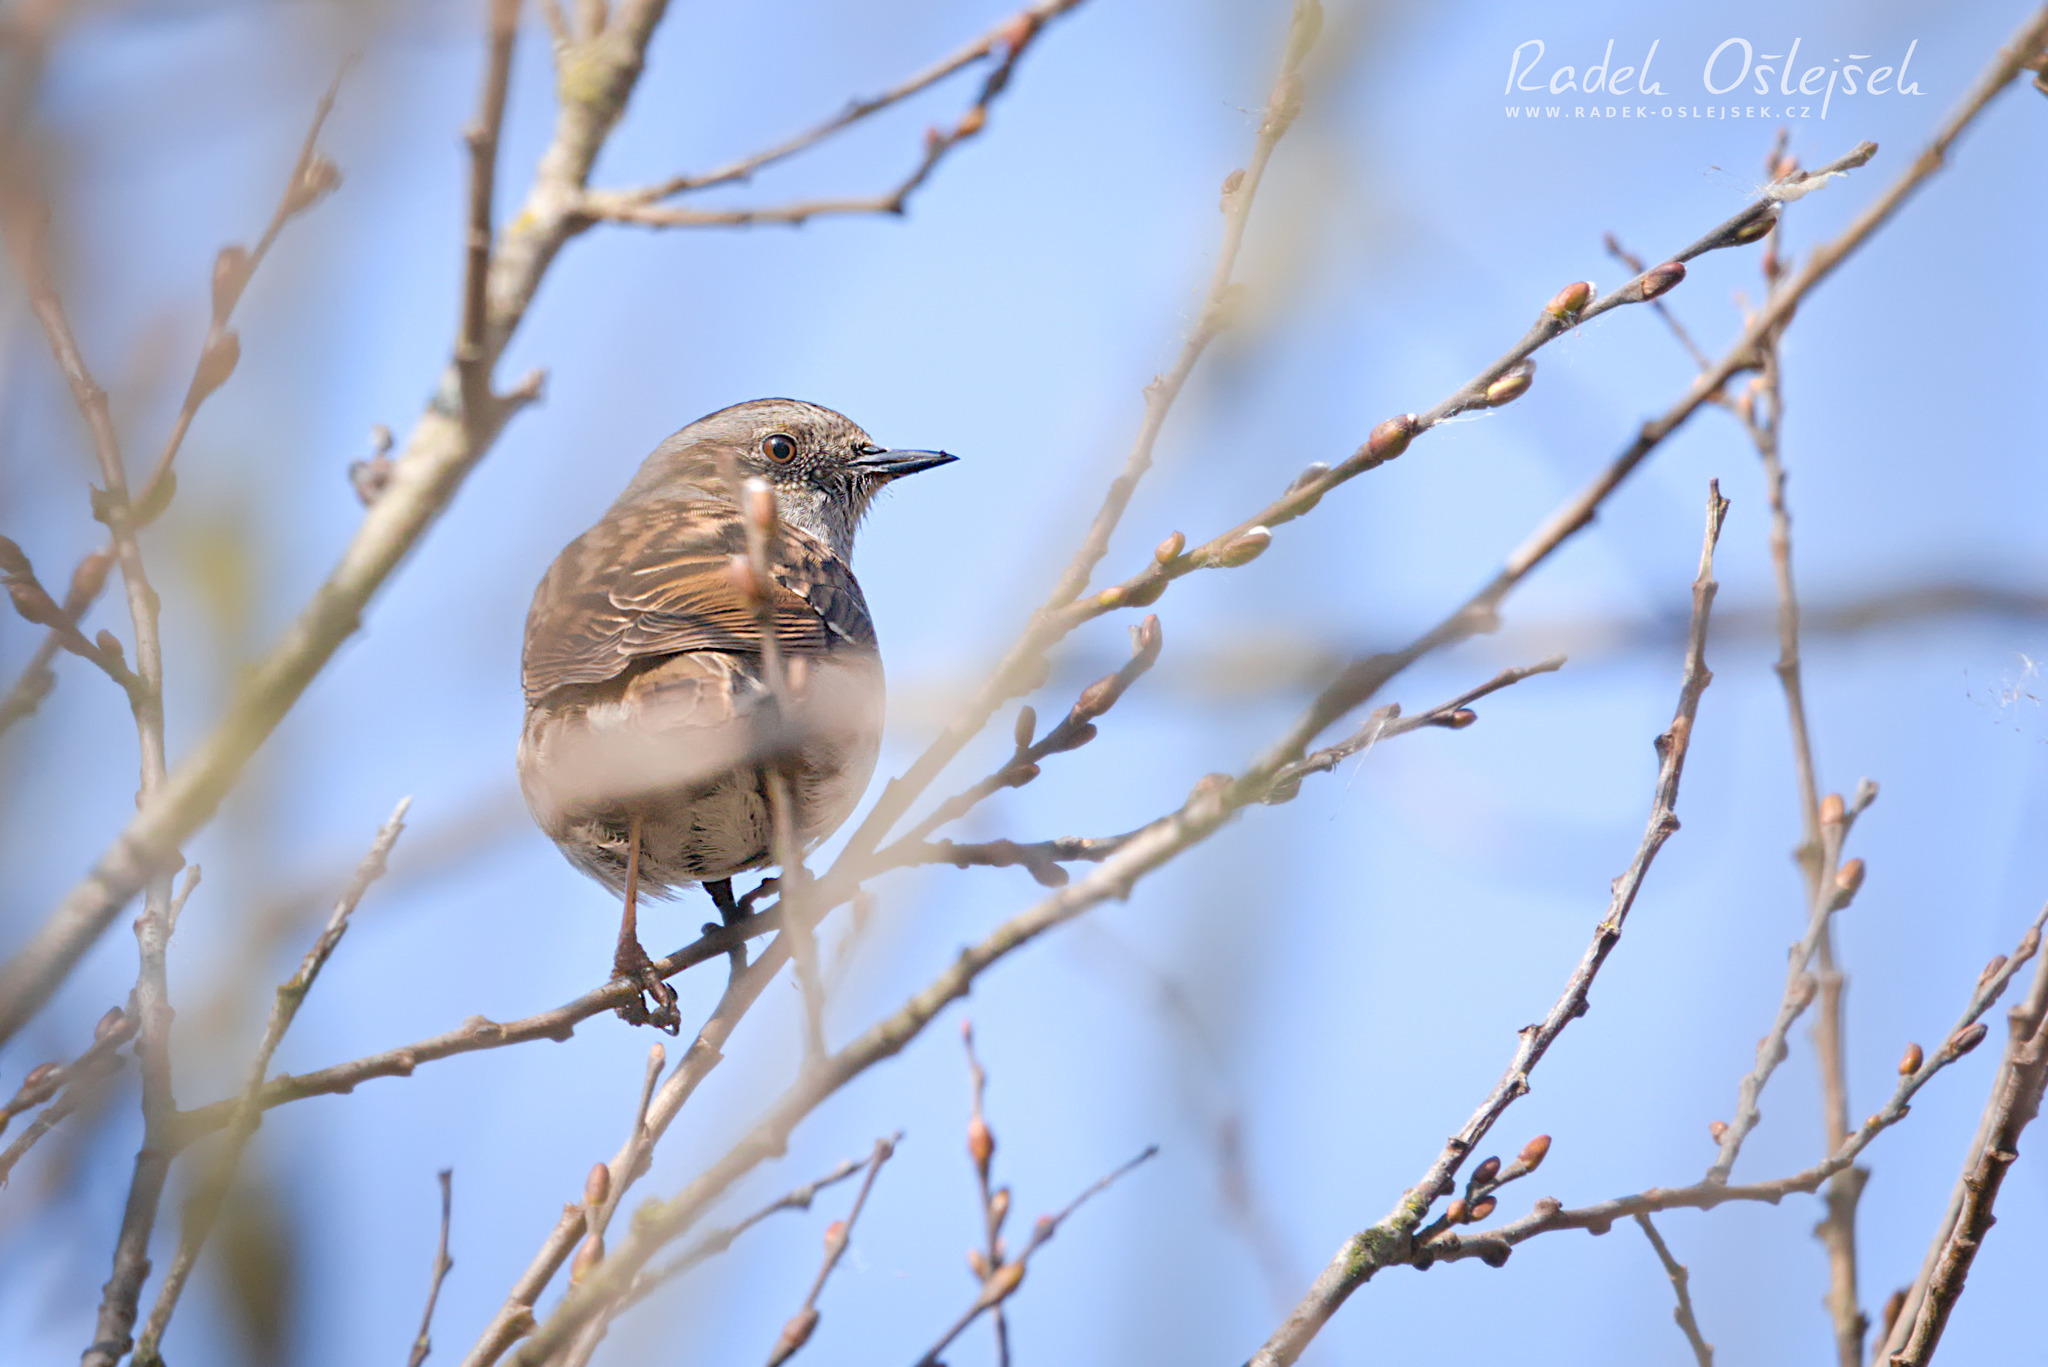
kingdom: Animalia
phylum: Chordata
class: Aves
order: Passeriformes
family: Prunellidae
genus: Prunella
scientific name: Prunella modularis
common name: Dunnock
